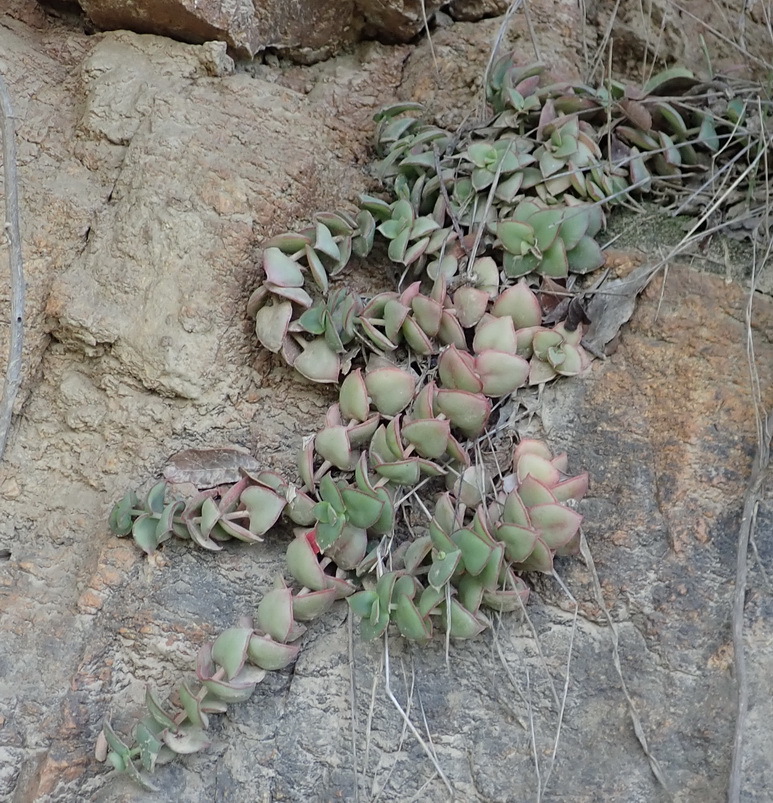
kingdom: Plantae
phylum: Tracheophyta
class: Magnoliopsida
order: Saxifragales
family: Crassulaceae
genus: Crassula
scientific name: Crassula pellucida
